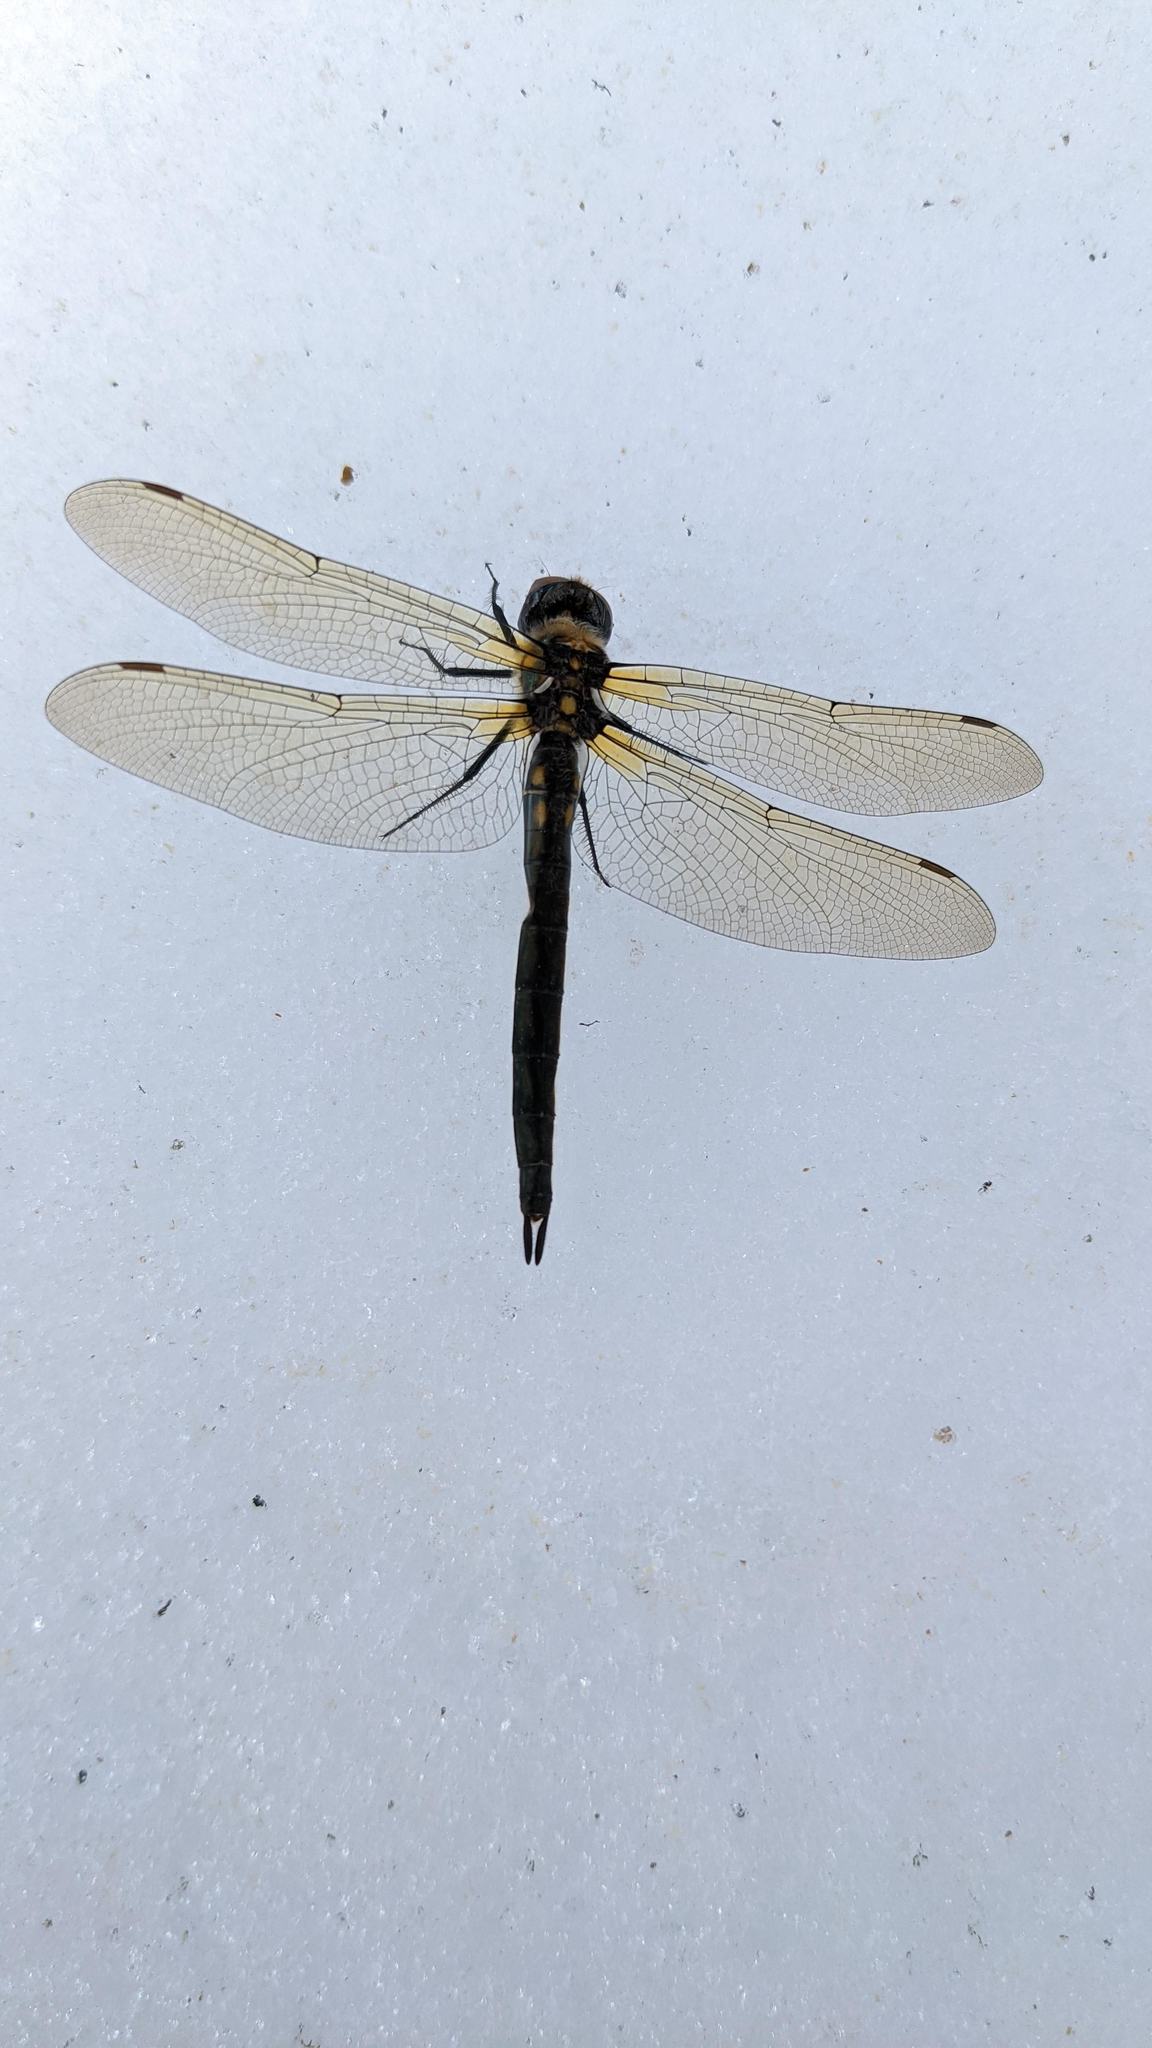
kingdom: Animalia
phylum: Arthropoda
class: Insecta
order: Odonata
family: Corduliidae
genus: Somatochlora
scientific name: Somatochlora semicircularis
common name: Mountain emerald
